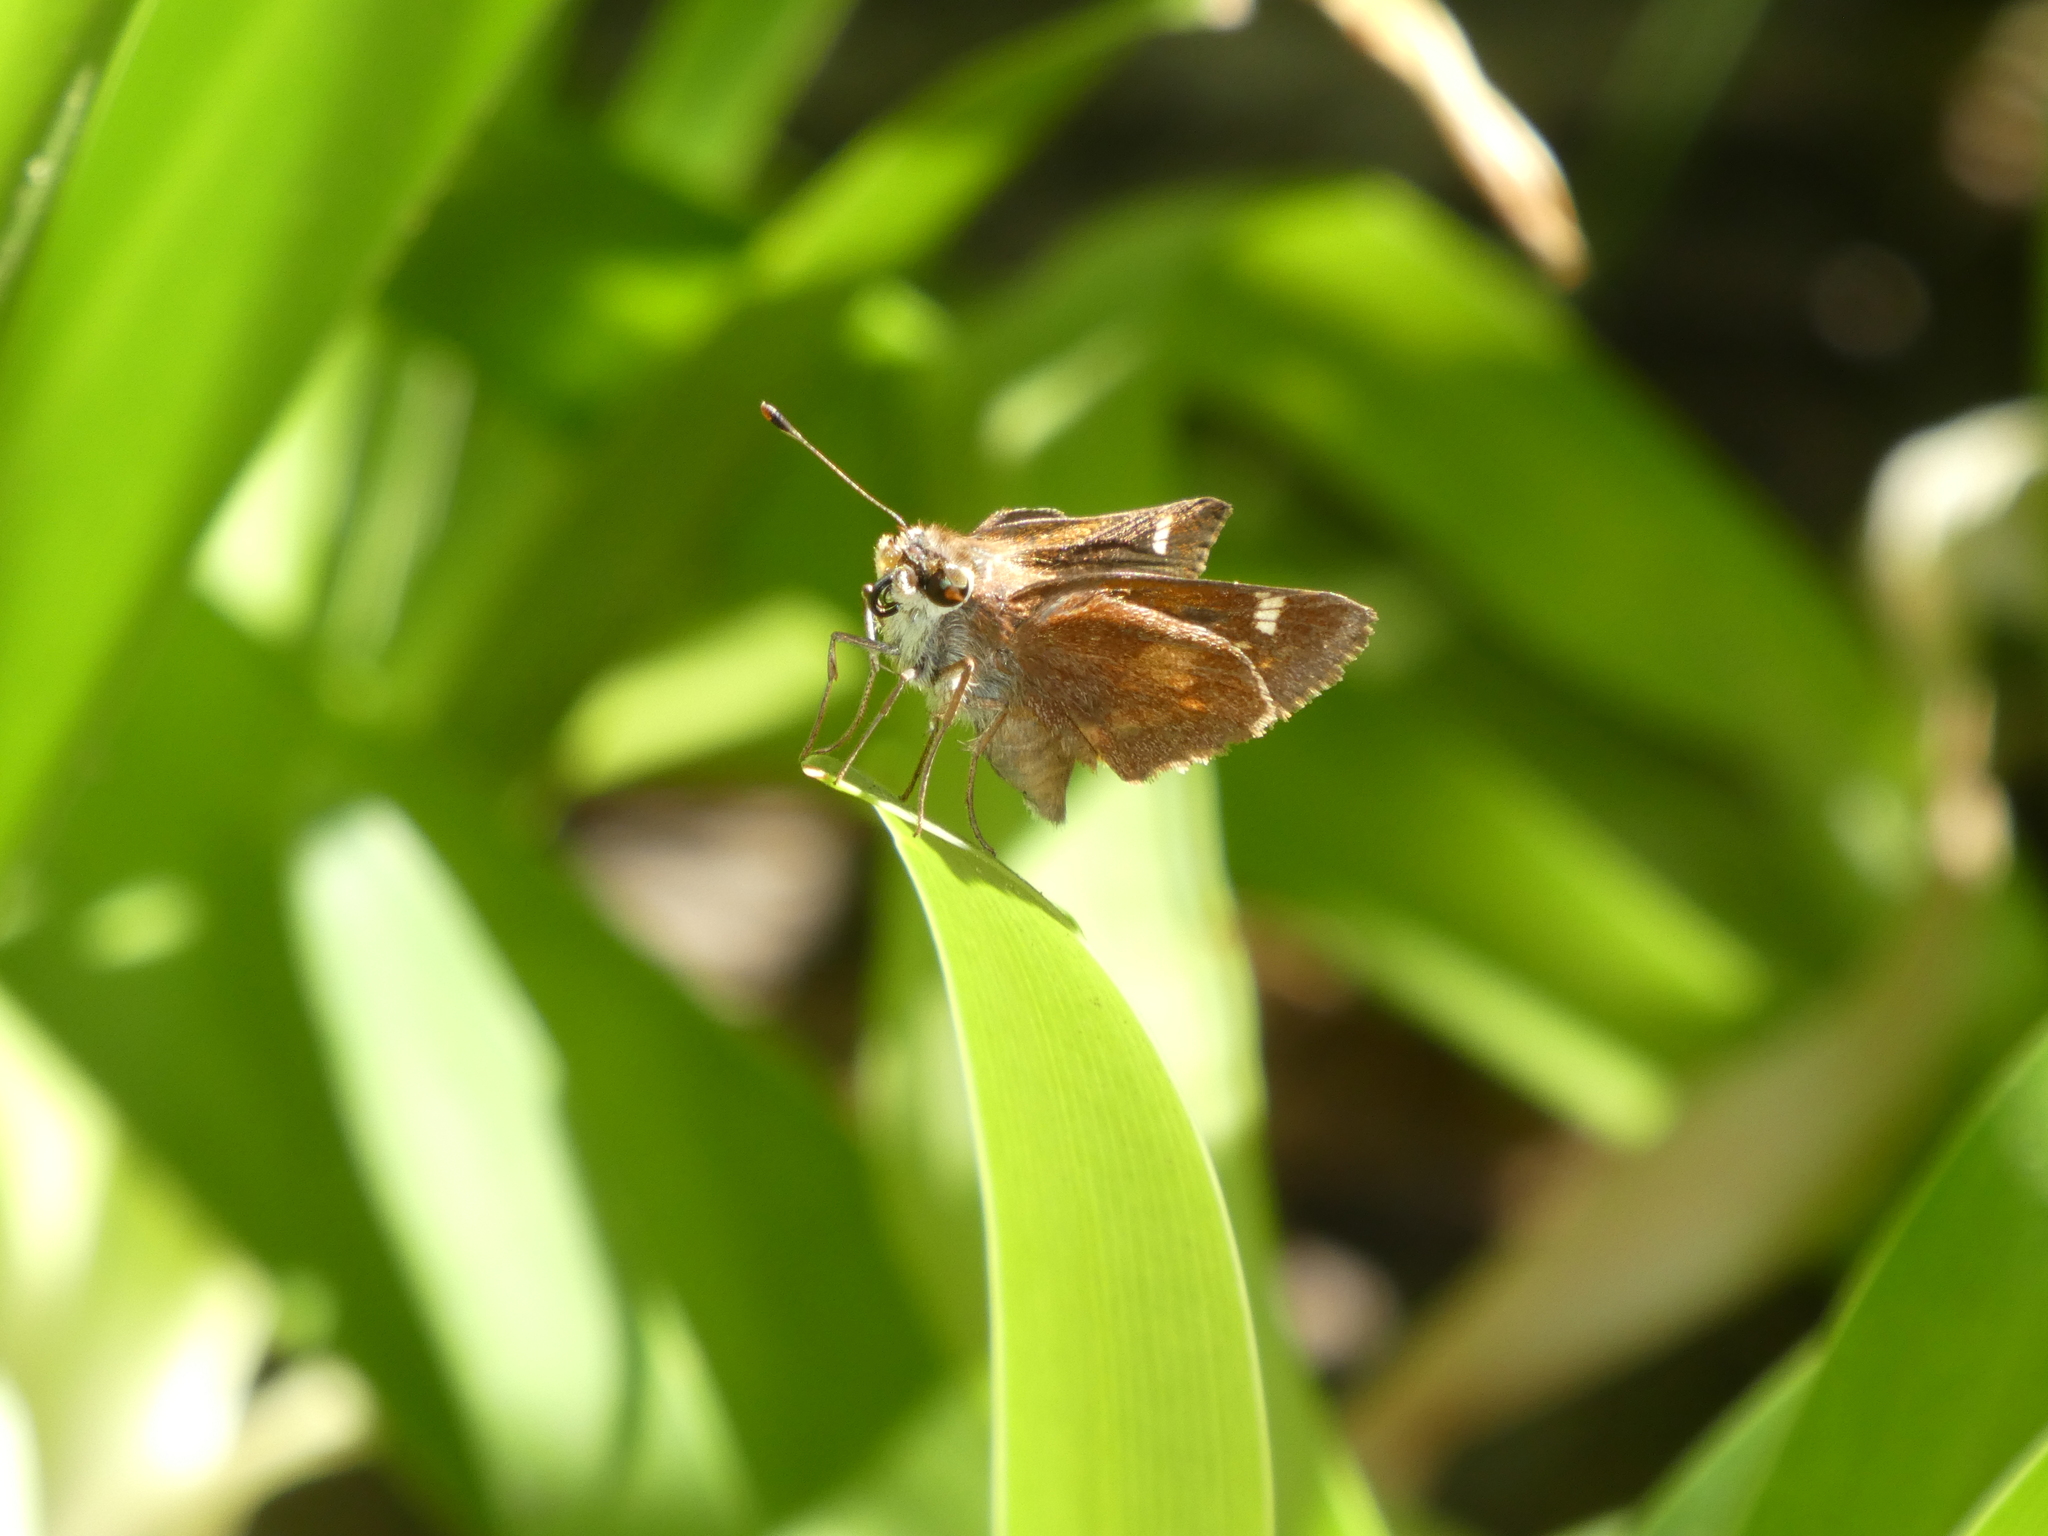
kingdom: Animalia
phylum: Arthropoda
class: Insecta
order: Lepidoptera
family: Hesperiidae
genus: Lon
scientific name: Lon melane
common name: Umber skipper
